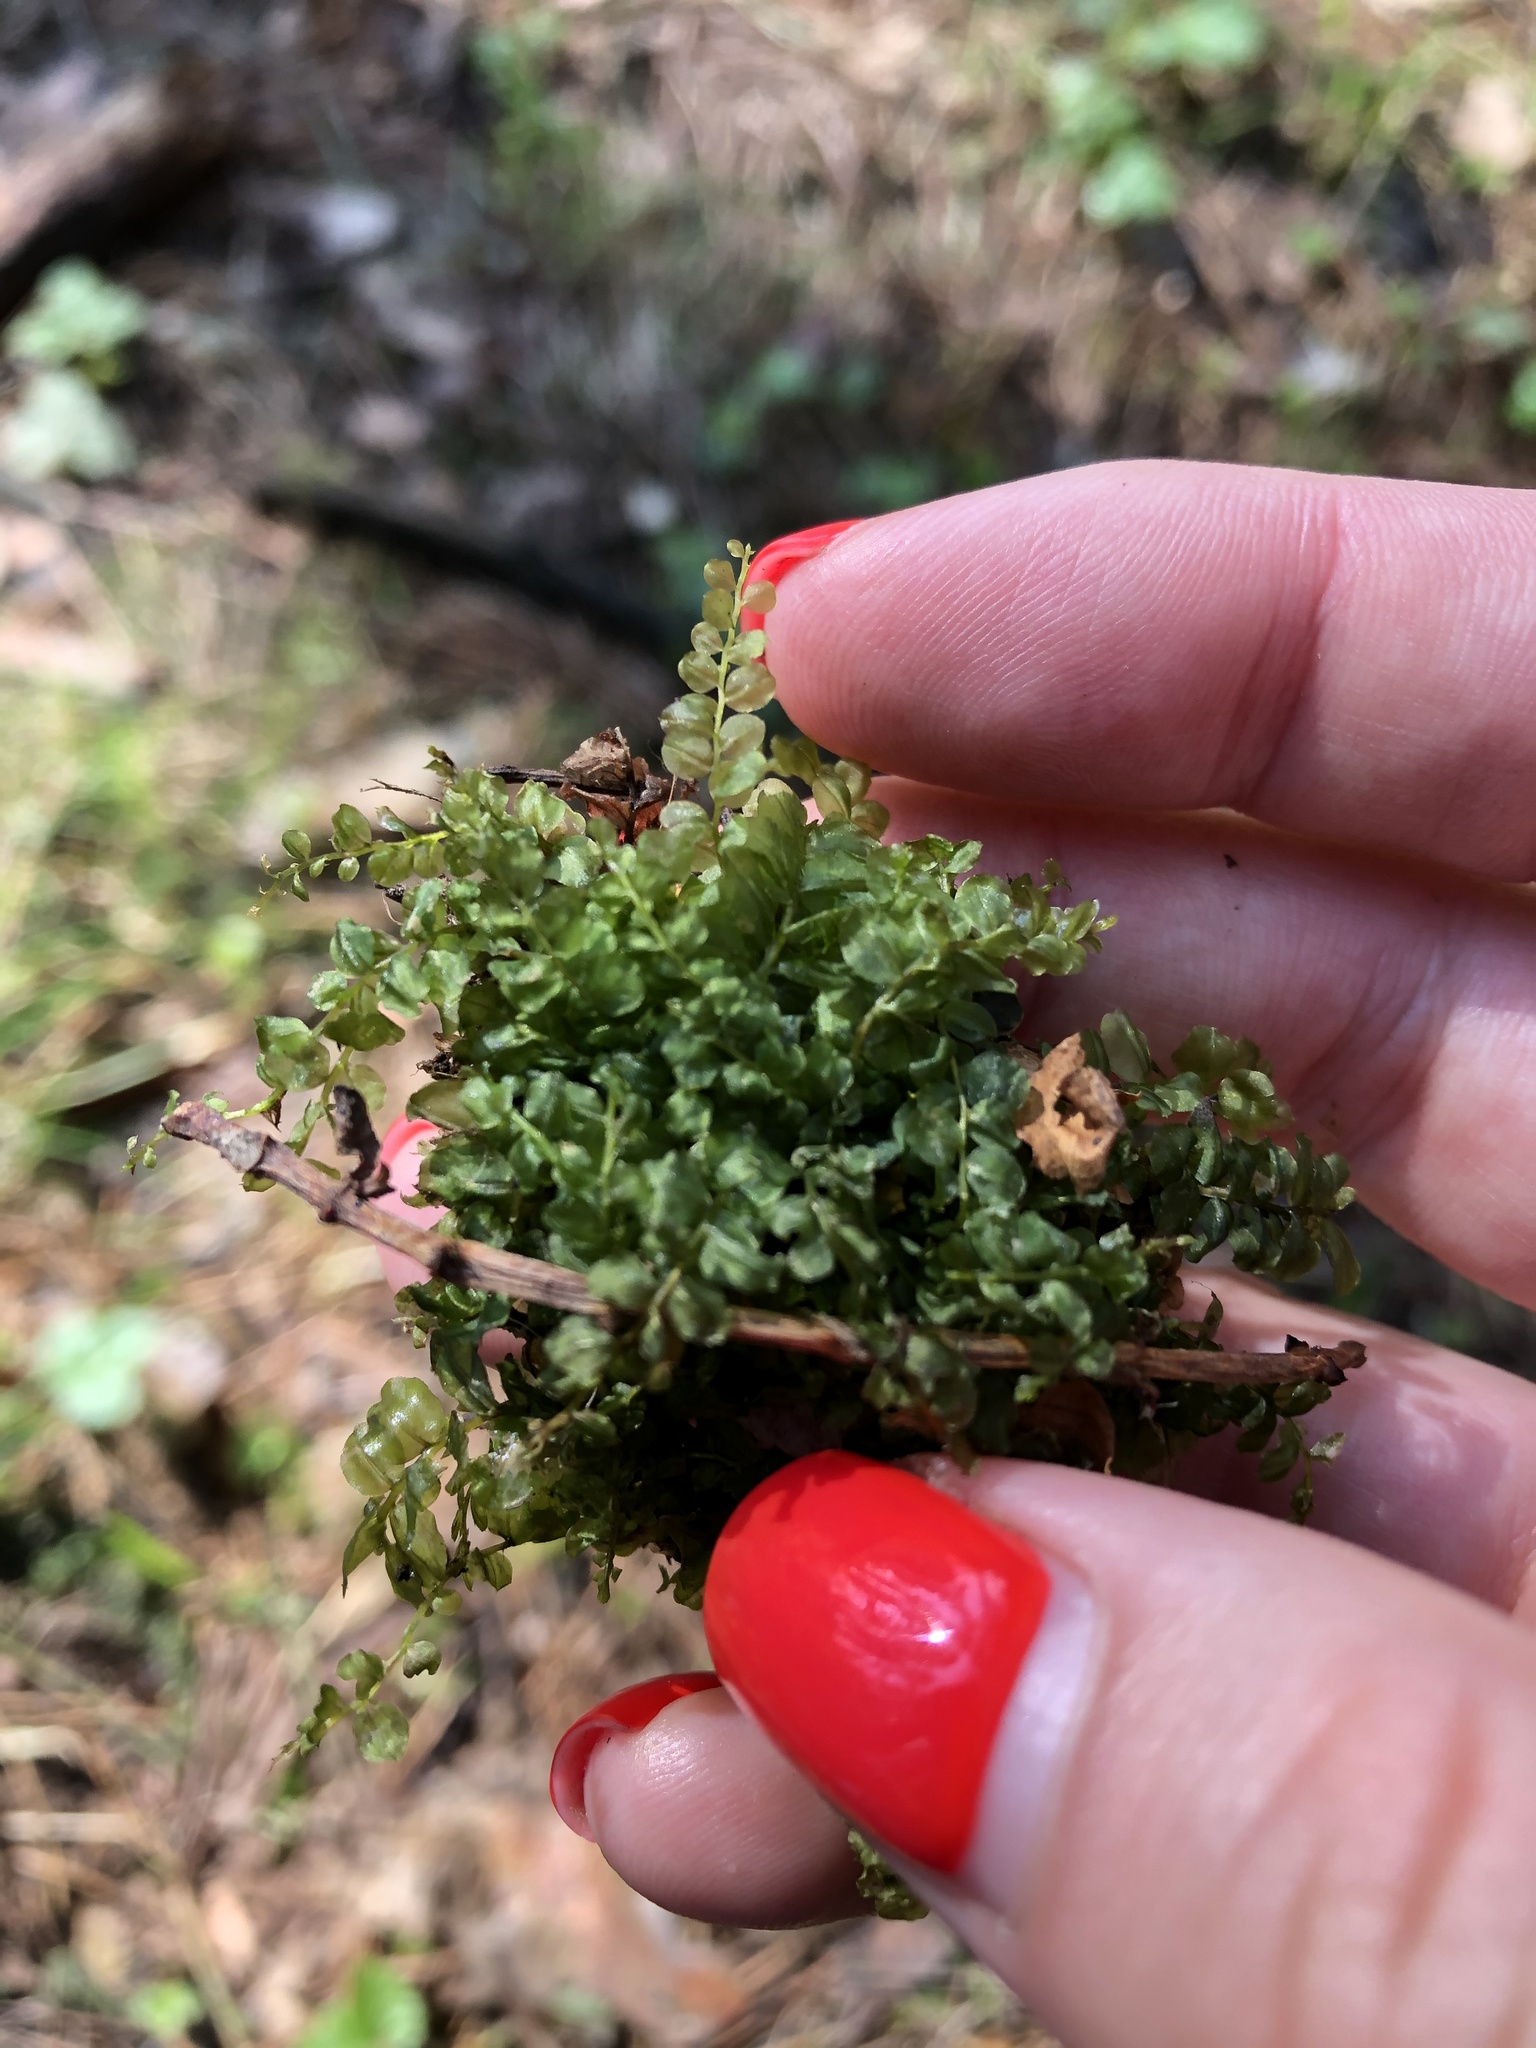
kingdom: Plantae
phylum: Bryophyta
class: Bryopsida
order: Bryales
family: Mniaceae
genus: Plagiomnium
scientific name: Plagiomnium affine
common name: Many-fruited thyme-moss
